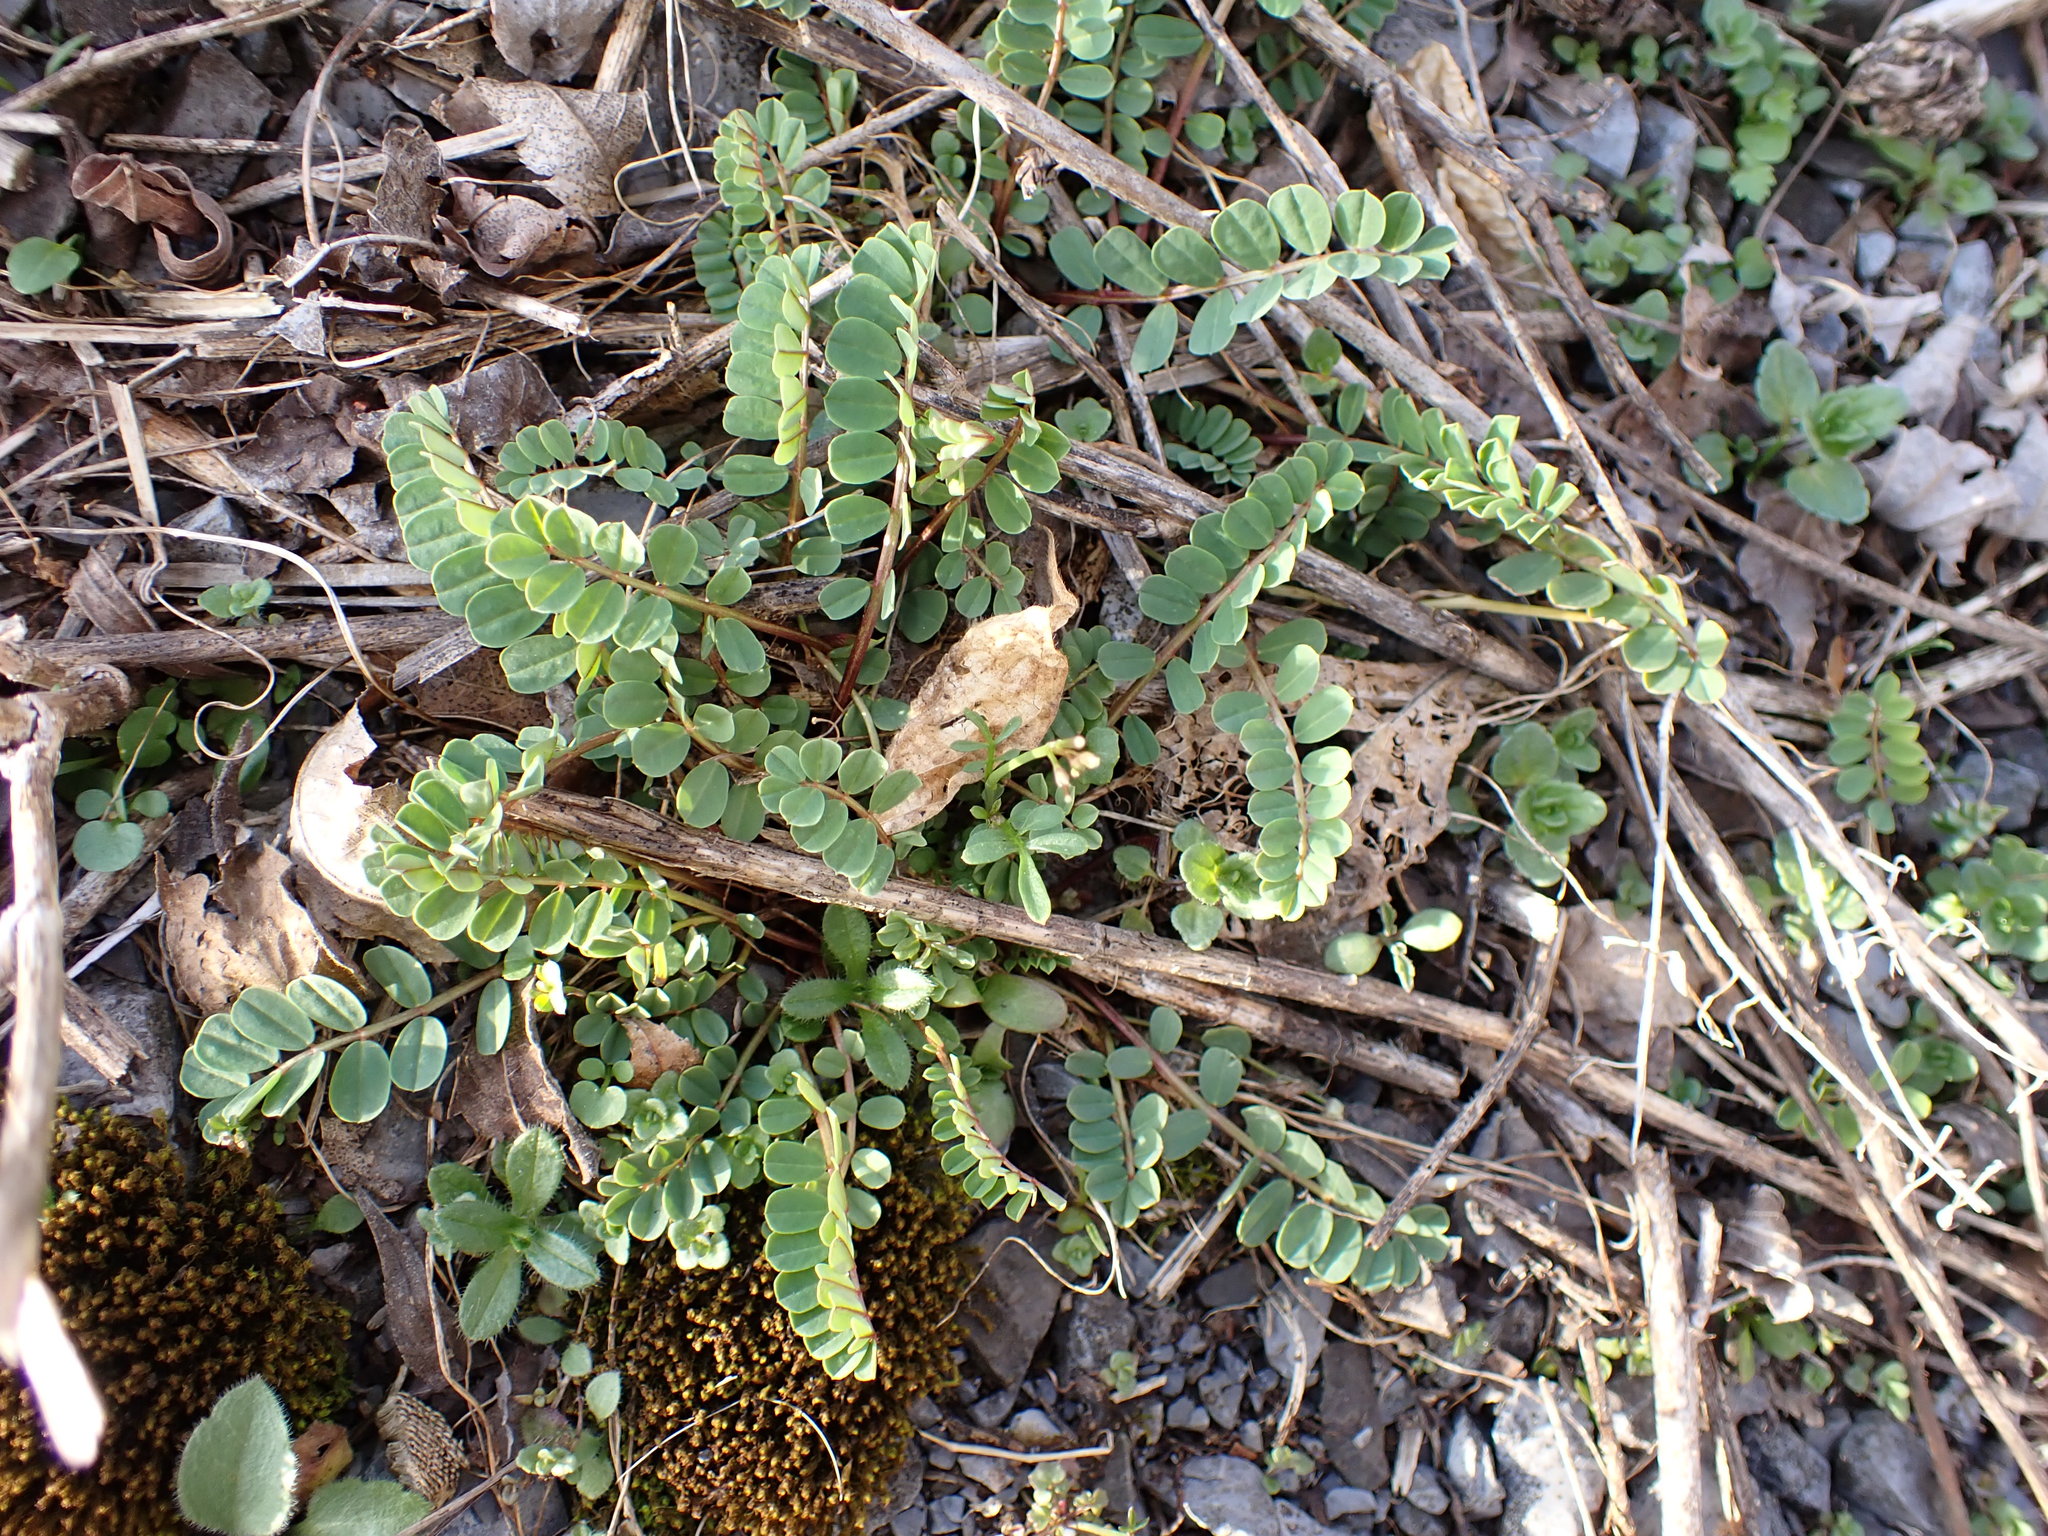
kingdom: Plantae
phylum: Tracheophyta
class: Magnoliopsida
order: Fabales
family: Fabaceae
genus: Coronilla
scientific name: Coronilla varia
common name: Crownvetch
